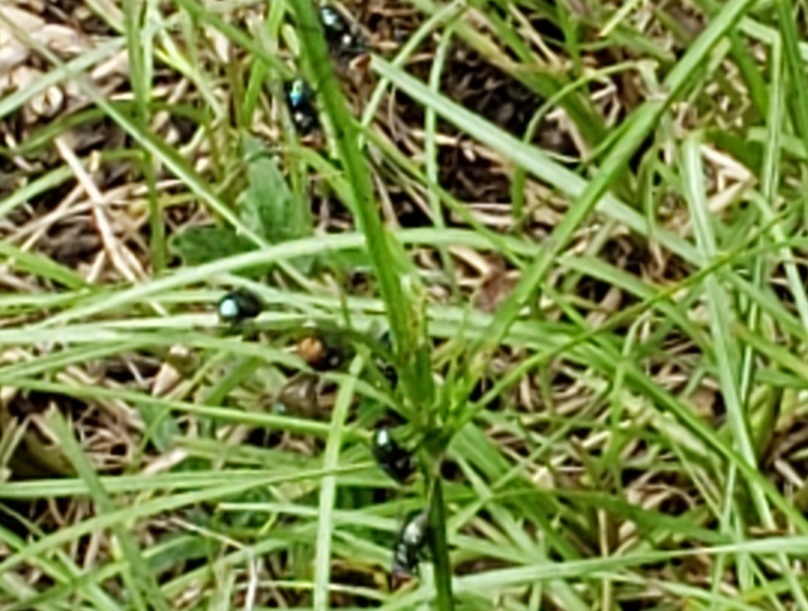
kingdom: Animalia
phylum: Arthropoda
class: Insecta
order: Diptera
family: Calliphoridae
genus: Chrysomya
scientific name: Chrysomya megacephala
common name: Blow fly
